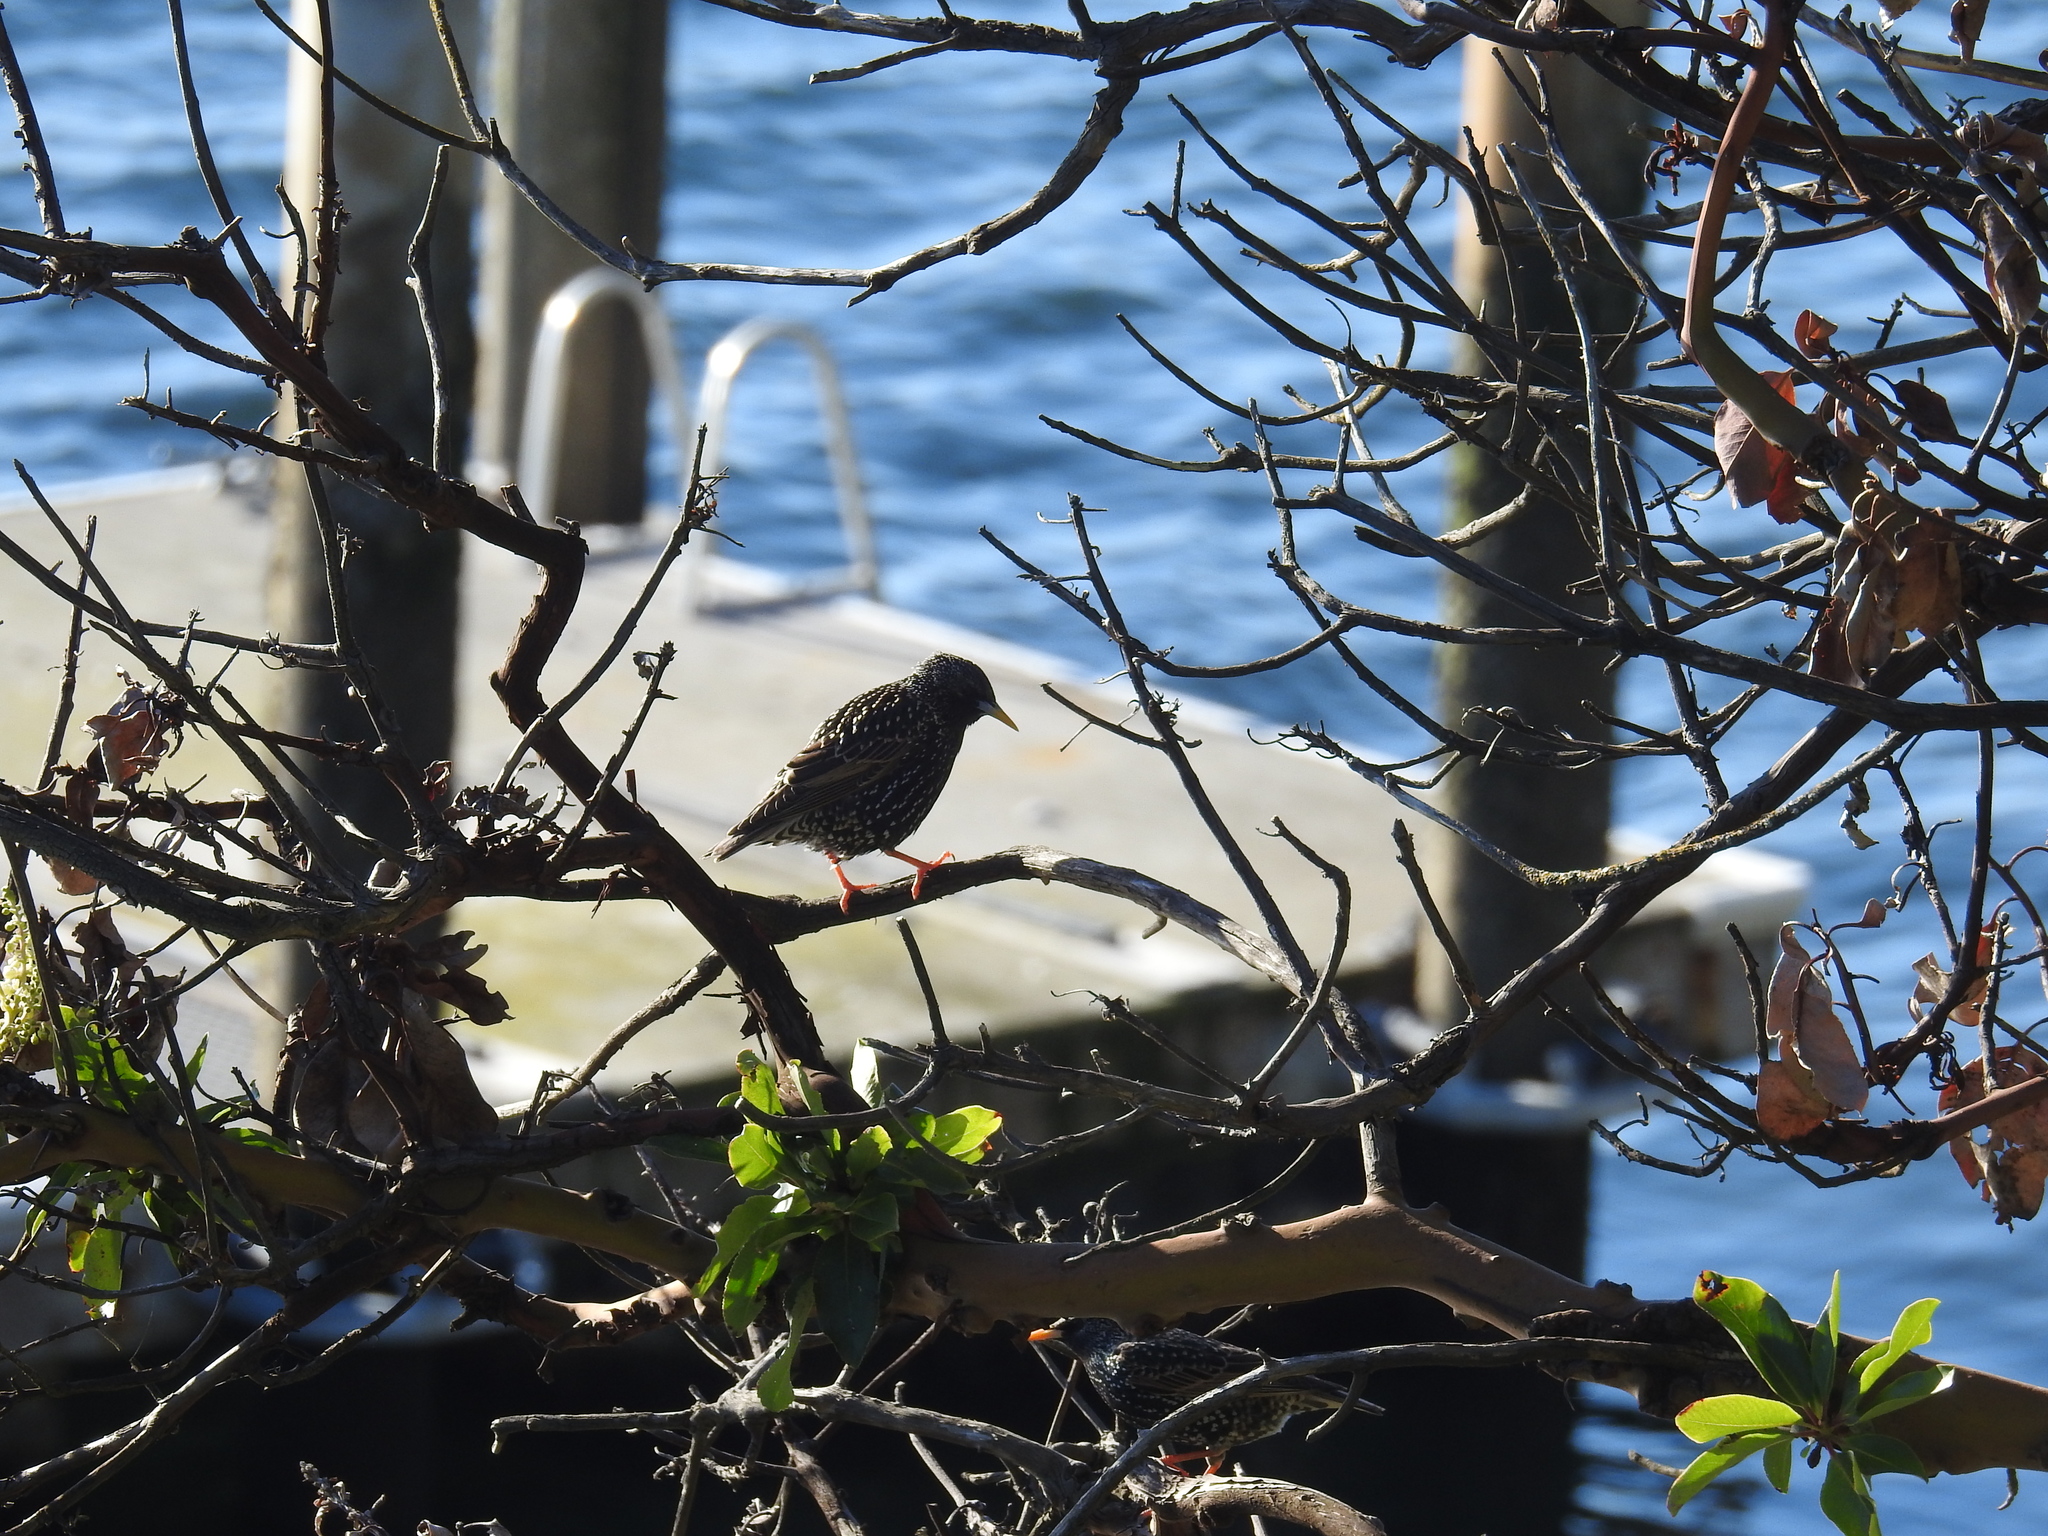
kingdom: Animalia
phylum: Chordata
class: Aves
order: Passeriformes
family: Sturnidae
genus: Sturnus
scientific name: Sturnus vulgaris
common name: Common starling
